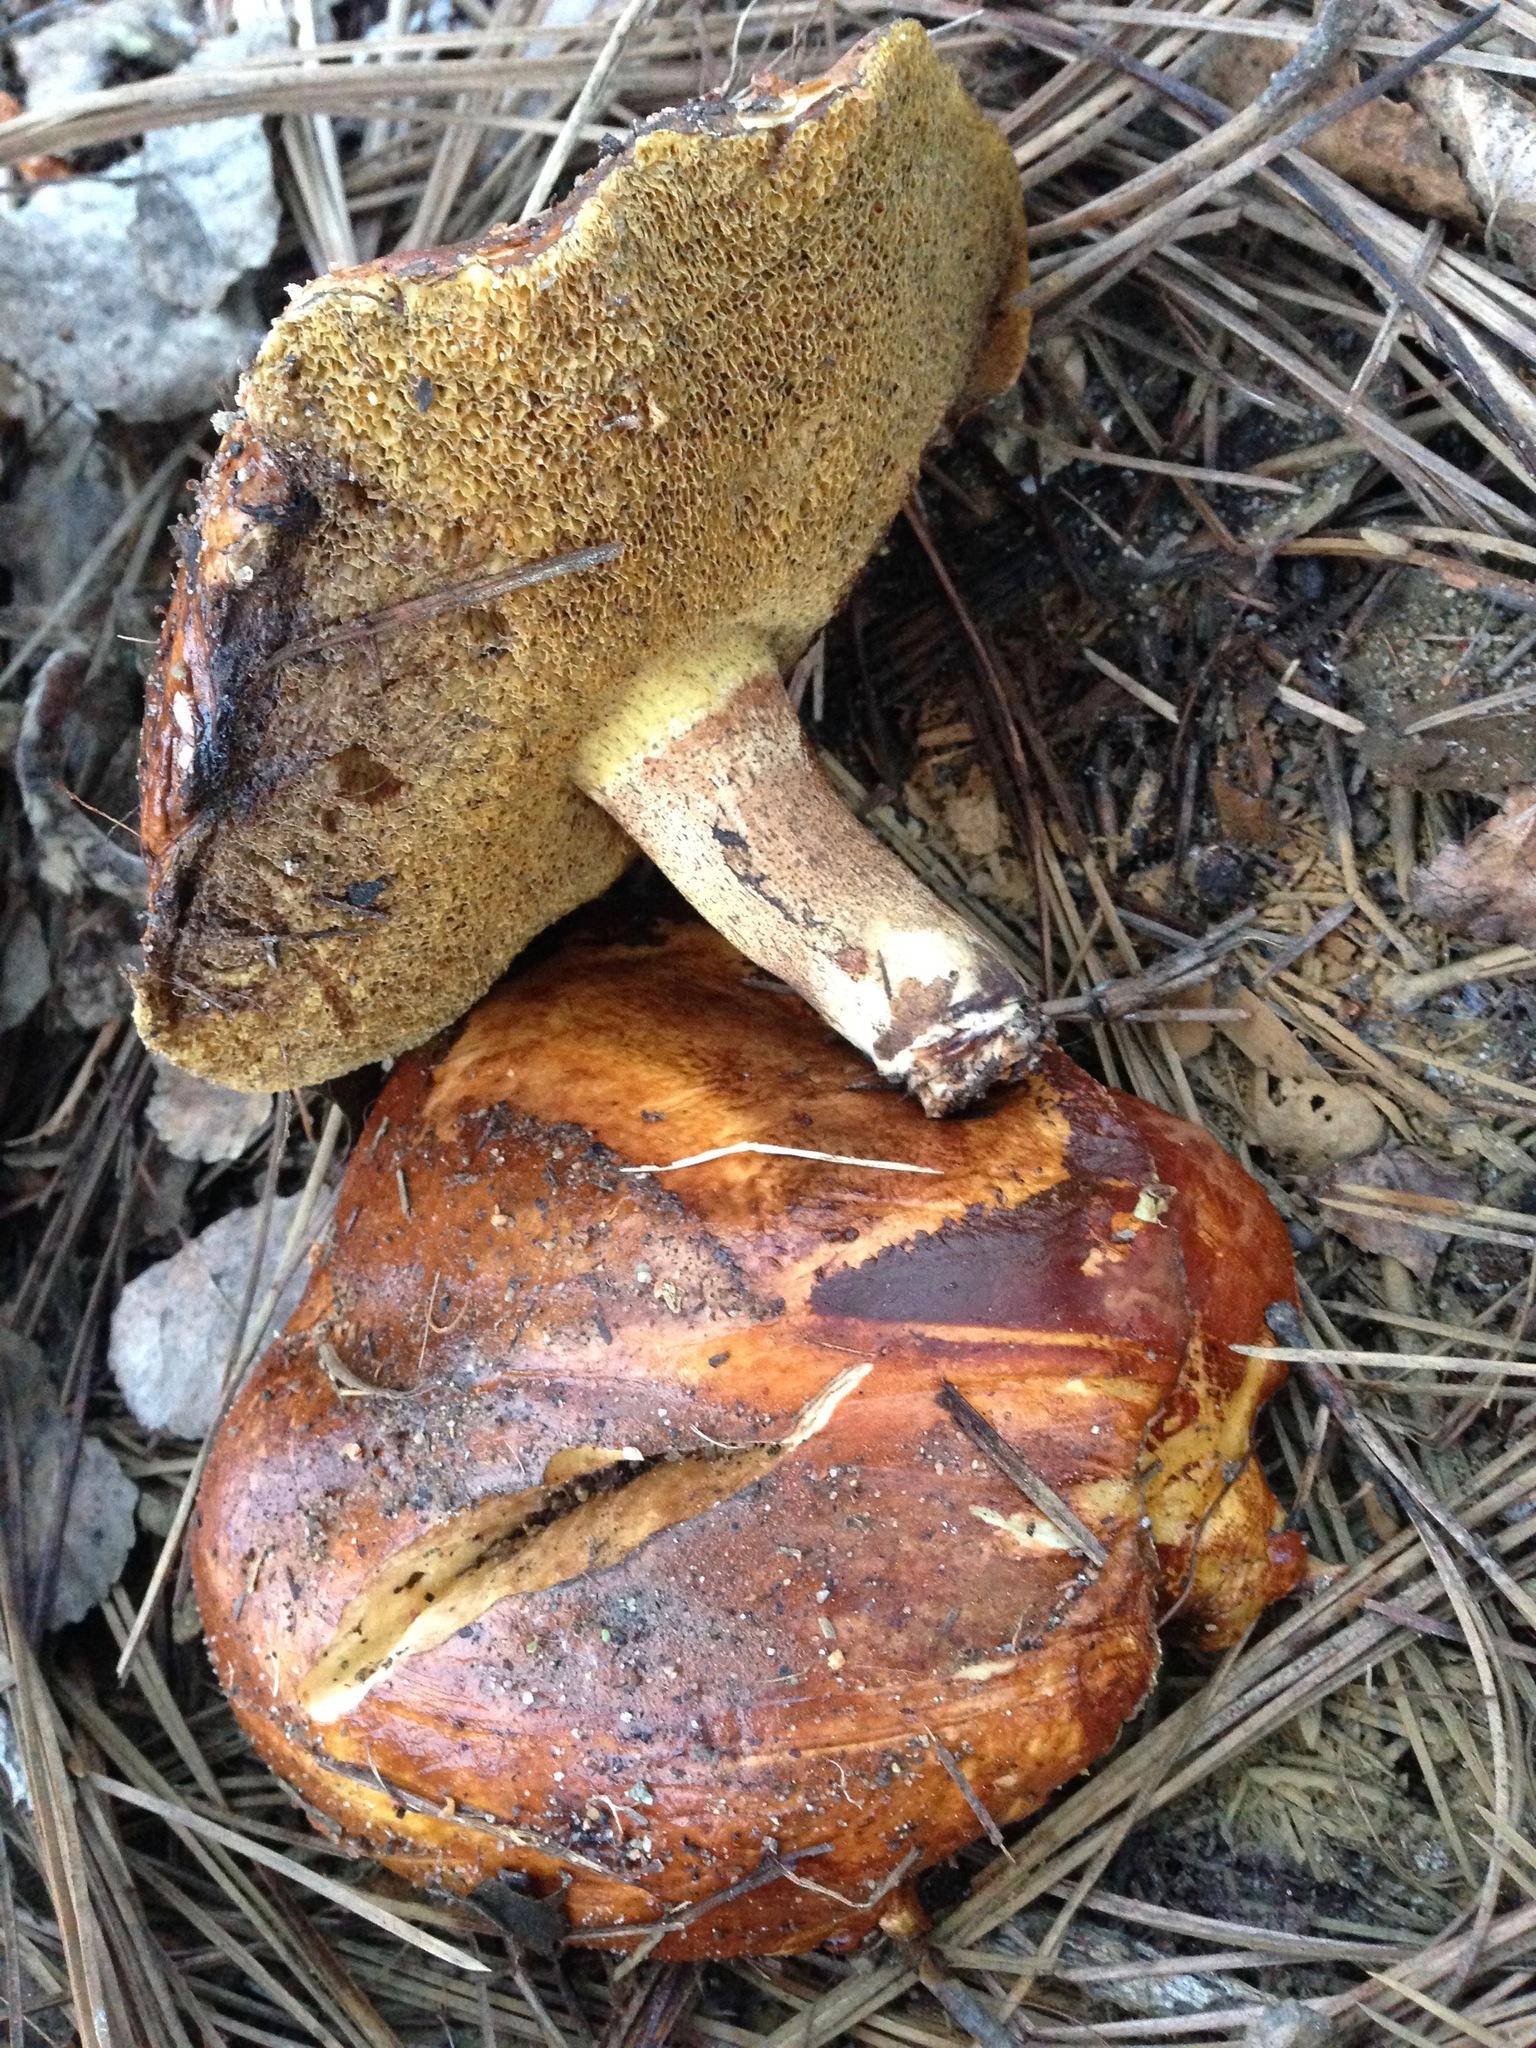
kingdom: Fungi
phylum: Basidiomycota
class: Agaricomycetes
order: Boletales
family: Suillaceae
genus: Suillus
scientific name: Suillus pungens
